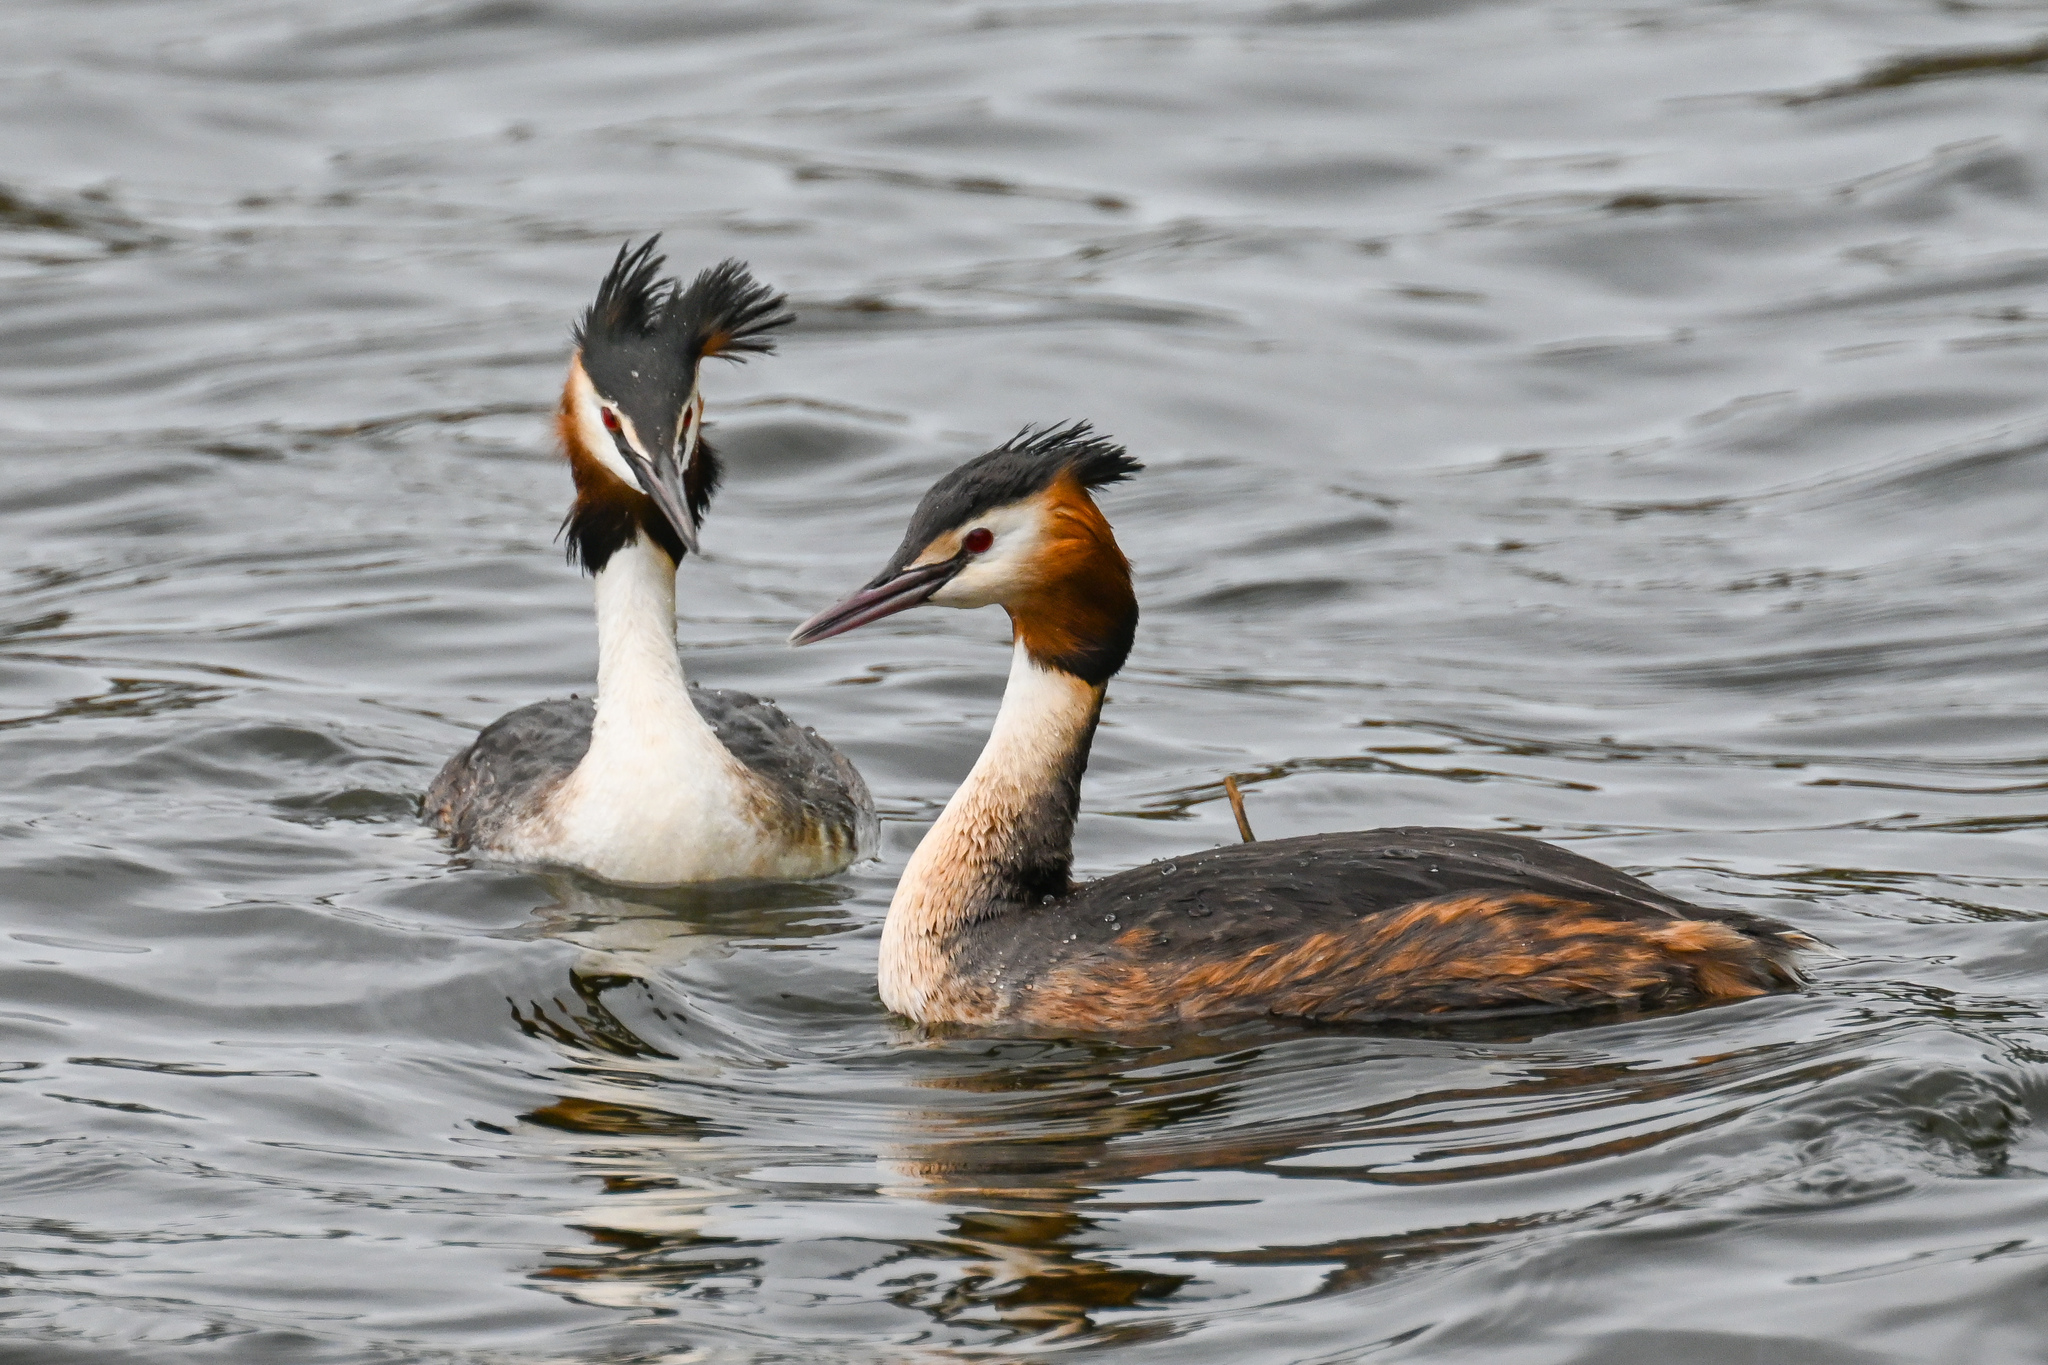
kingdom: Animalia
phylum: Chordata
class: Aves
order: Podicipediformes
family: Podicipedidae
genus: Podiceps
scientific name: Podiceps cristatus
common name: Great crested grebe
